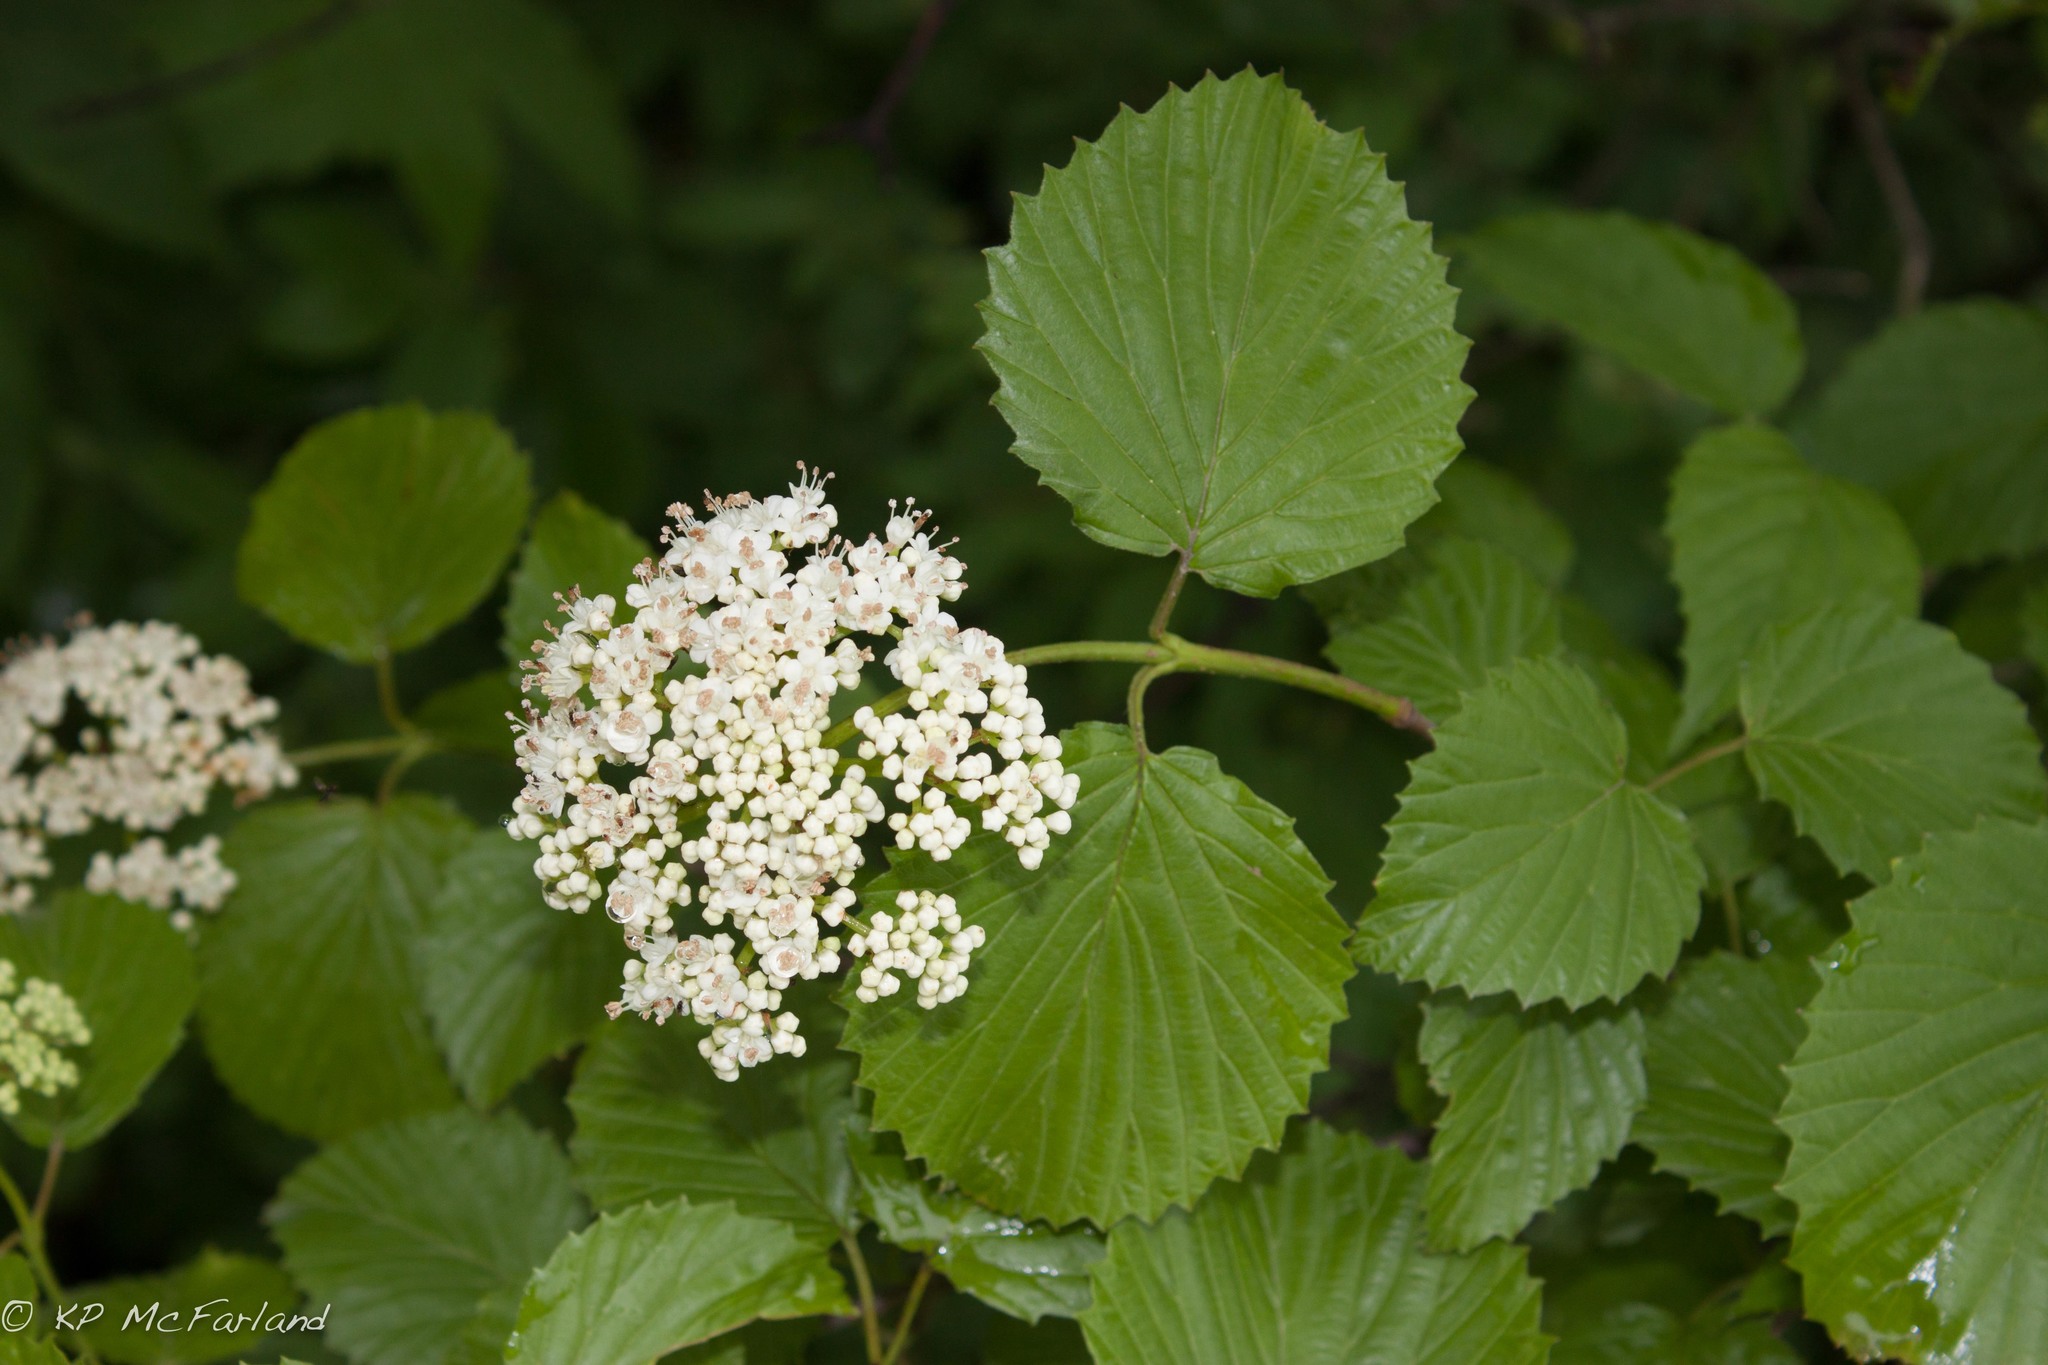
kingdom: Plantae
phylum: Tracheophyta
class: Magnoliopsida
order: Dipsacales
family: Viburnaceae
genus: Viburnum
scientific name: Viburnum dentatum
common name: Arrow-wood
